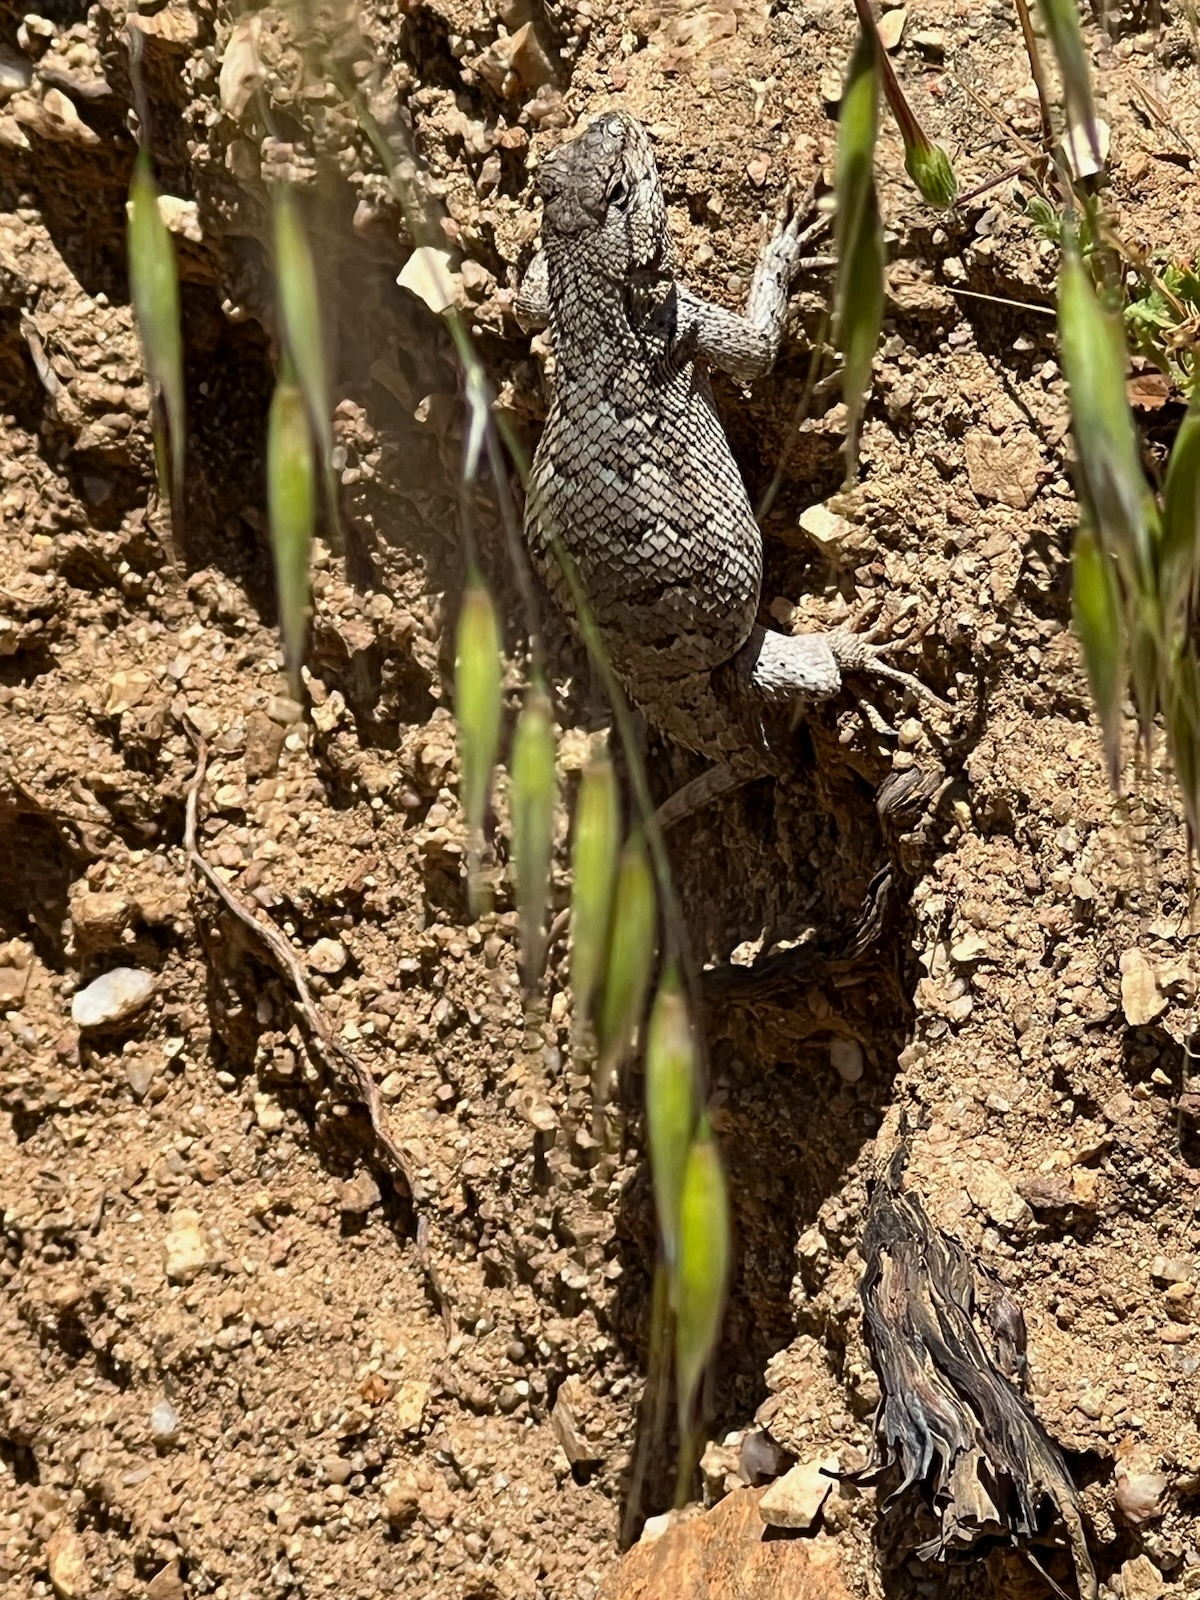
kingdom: Animalia
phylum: Chordata
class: Squamata
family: Phrynosomatidae
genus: Sceloporus
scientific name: Sceloporus occidentalis
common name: Western fence lizard
